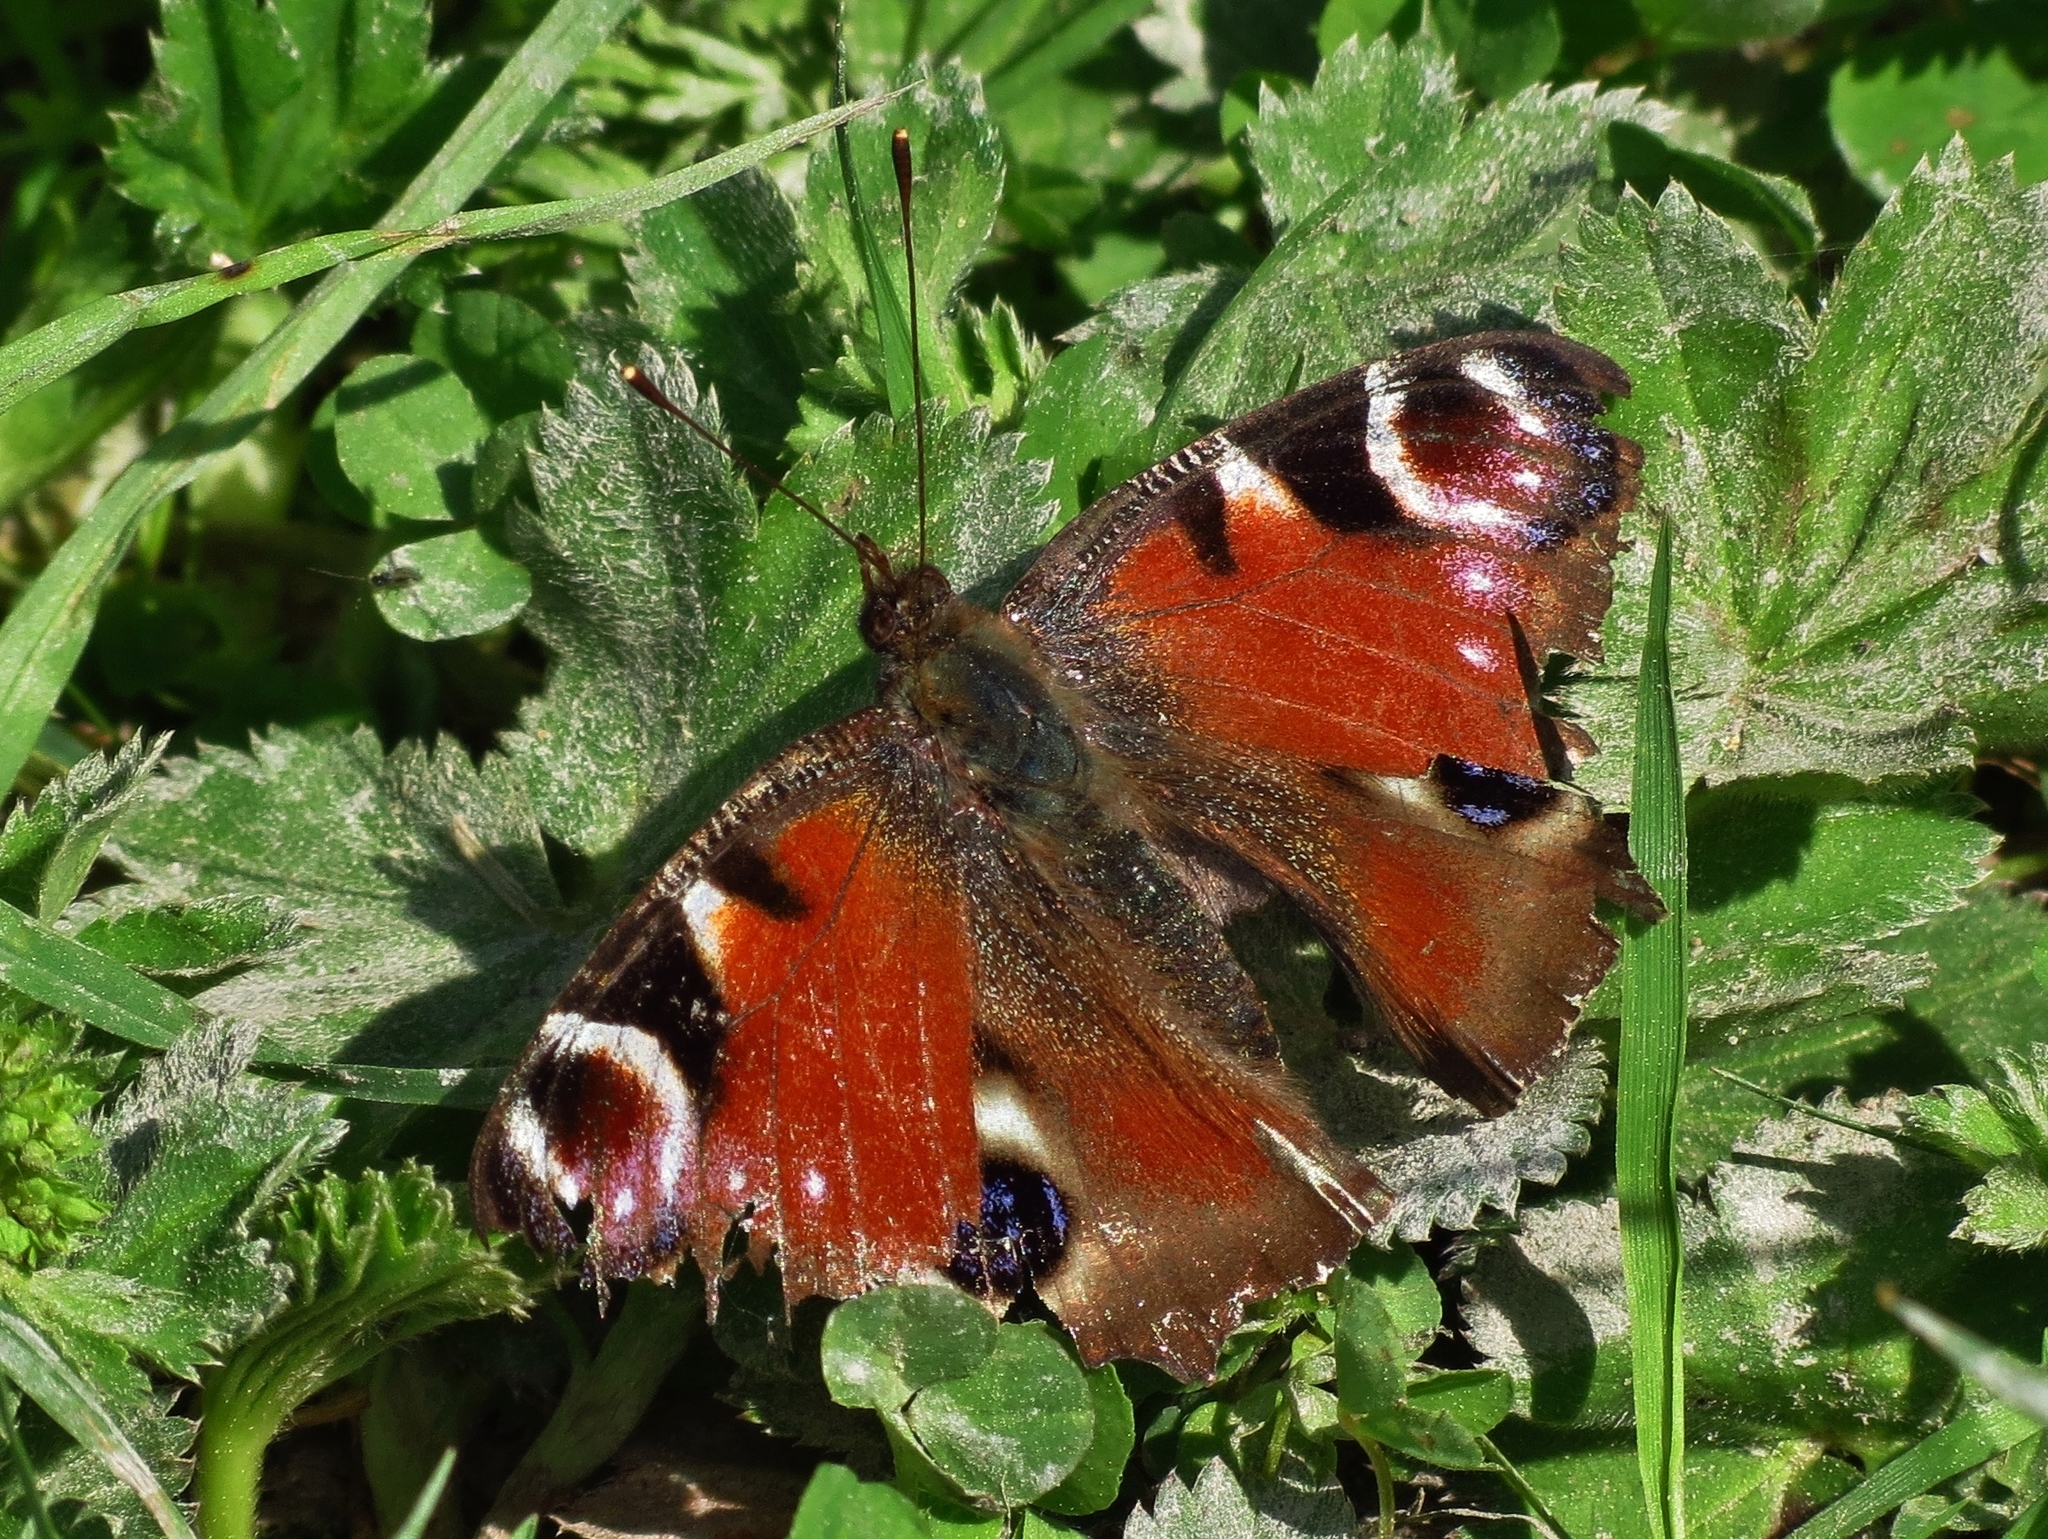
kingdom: Animalia
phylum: Arthropoda
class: Insecta
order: Lepidoptera
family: Nymphalidae
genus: Aglais
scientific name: Aglais io
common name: Peacock
